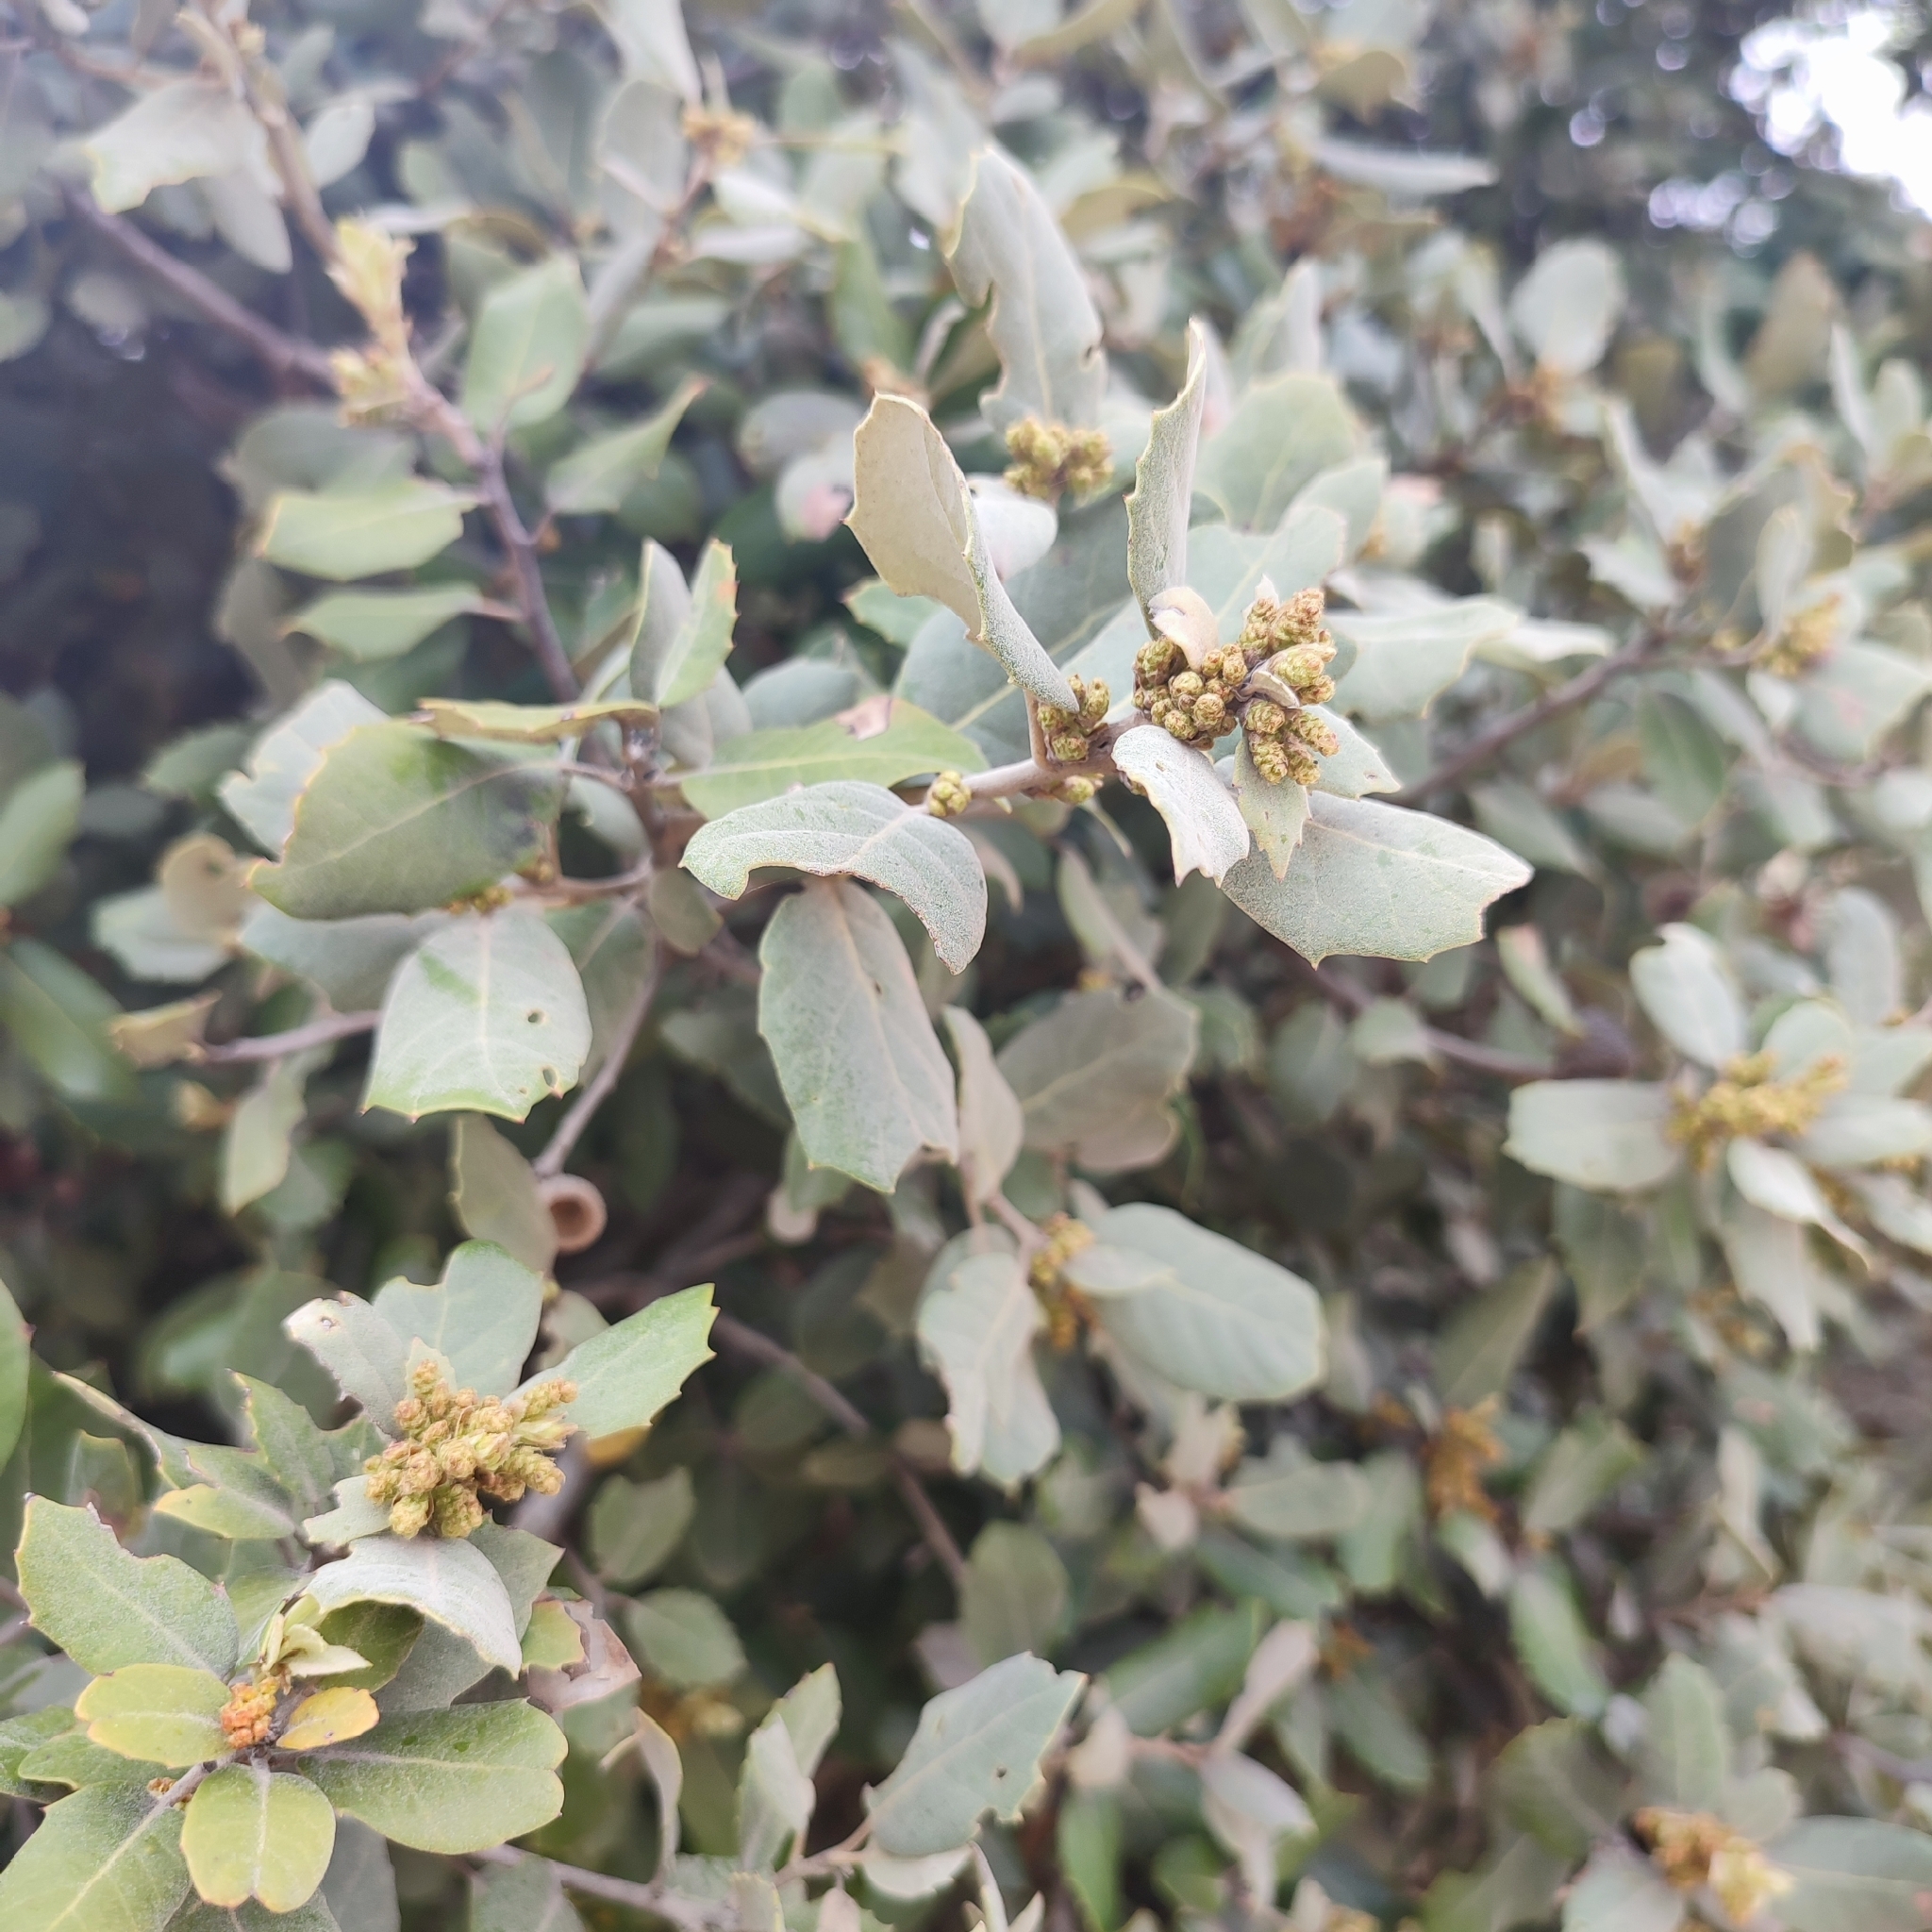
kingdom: Plantae
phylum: Tracheophyta
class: Magnoliopsida
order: Fagales
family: Fagaceae
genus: Quercus
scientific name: Quercus rotundifolia
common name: Holm oak
